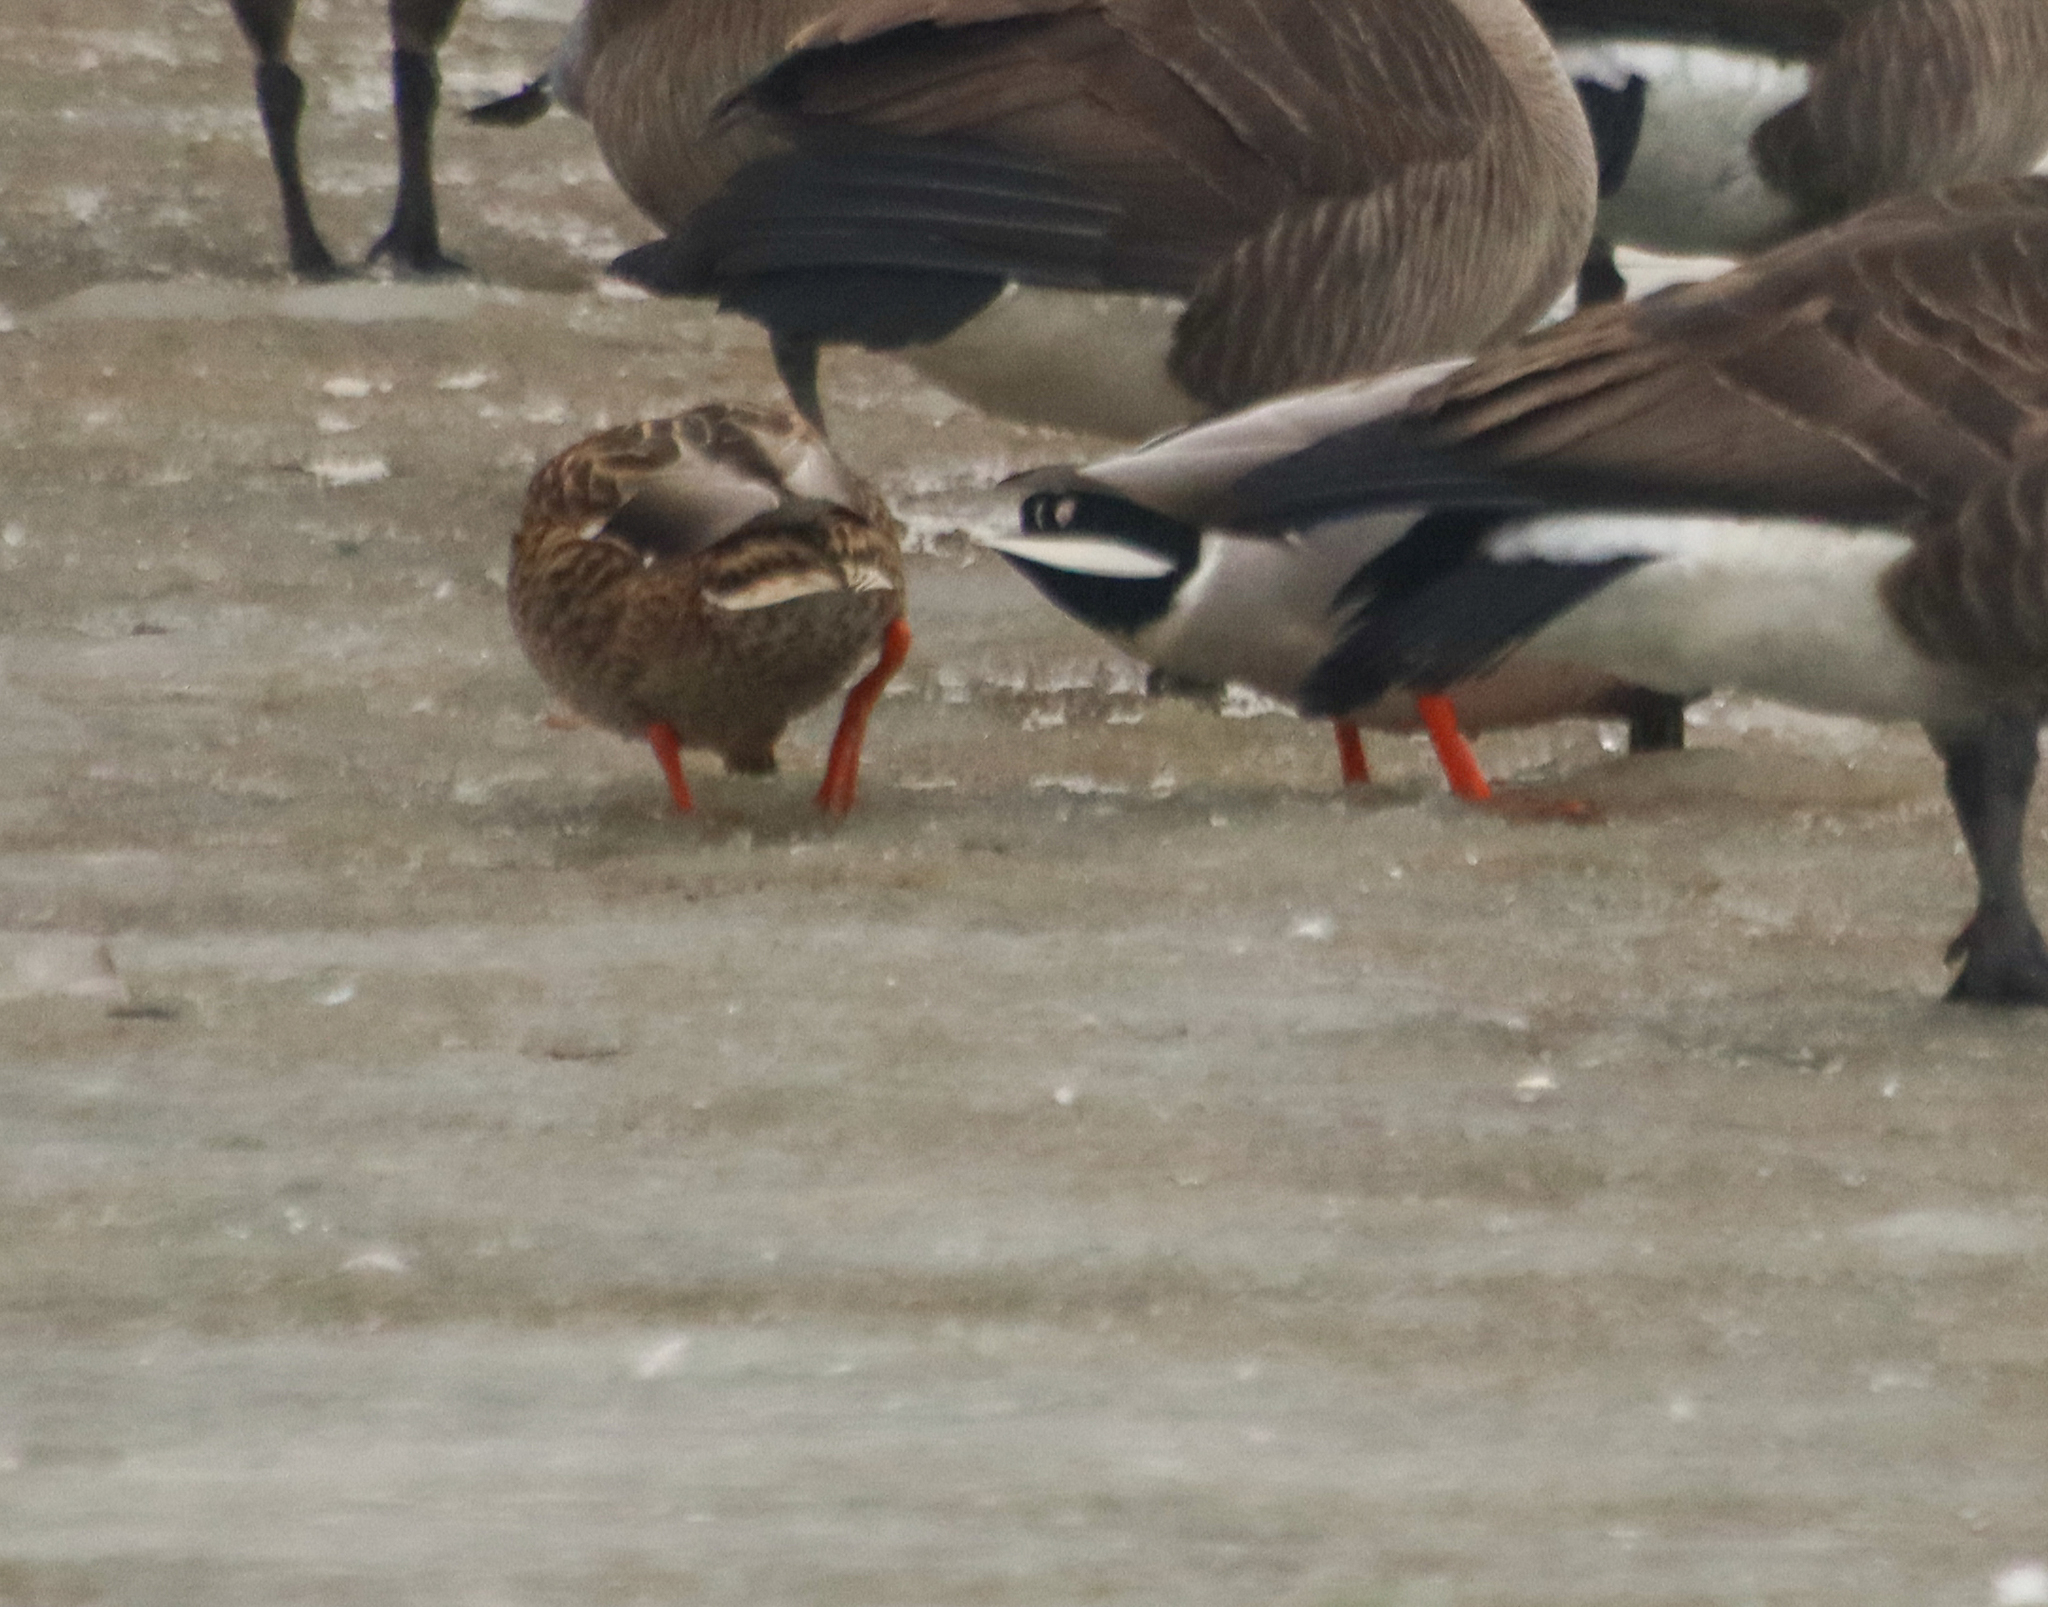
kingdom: Animalia
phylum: Chordata
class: Aves
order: Anseriformes
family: Anatidae
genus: Anas
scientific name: Anas platyrhynchos
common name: Mallard
